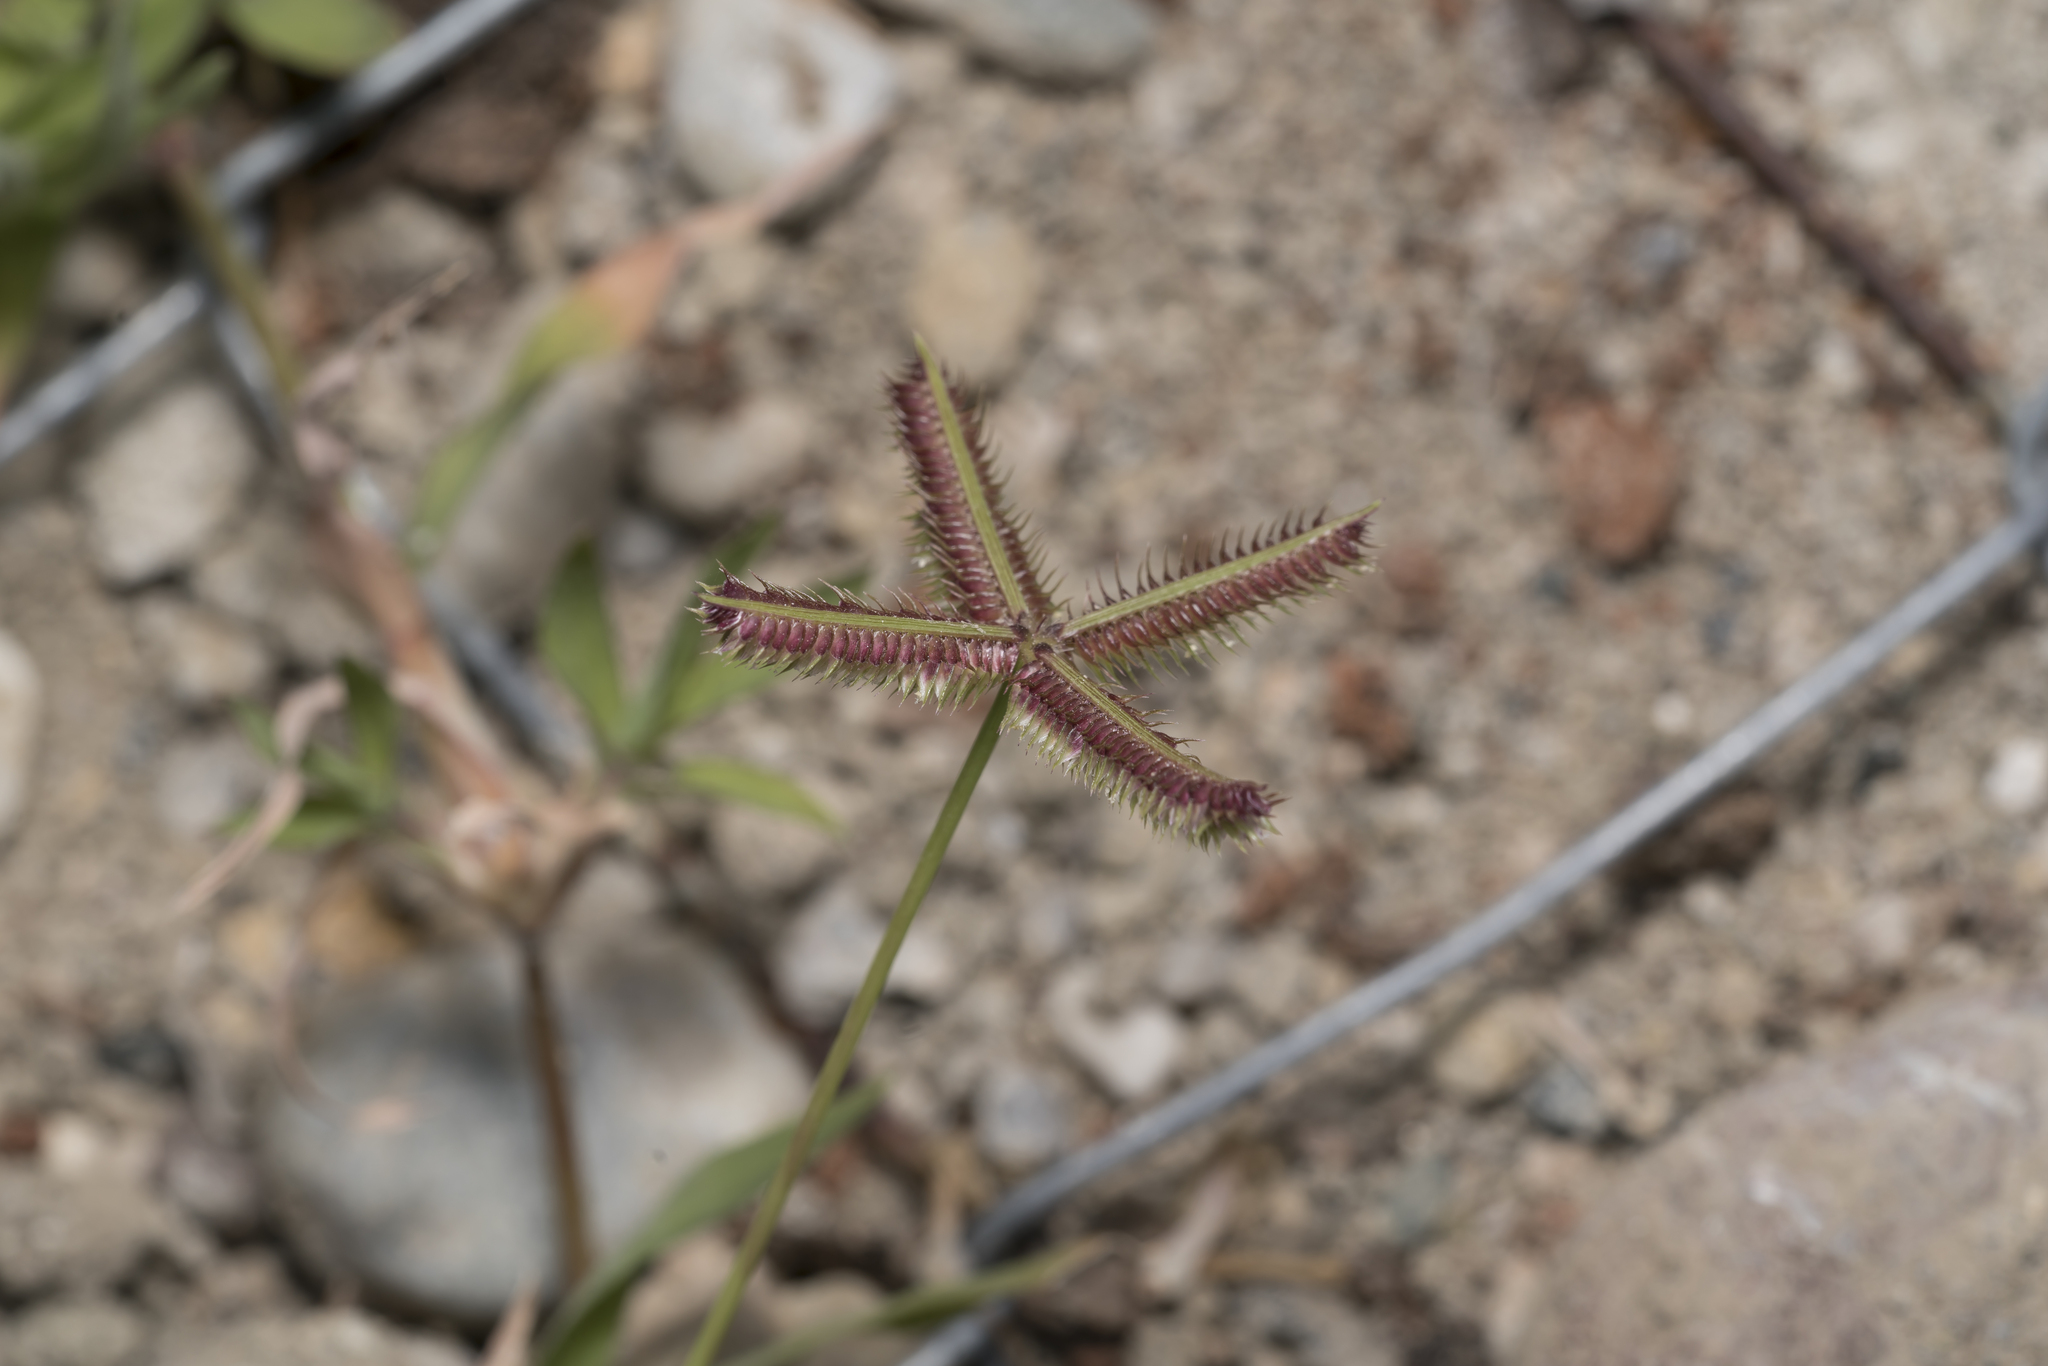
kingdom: Plantae
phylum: Tracheophyta
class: Liliopsida
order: Poales
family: Poaceae
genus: Dactyloctenium
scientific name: Dactyloctenium aegyptium
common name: Egyptian grass
